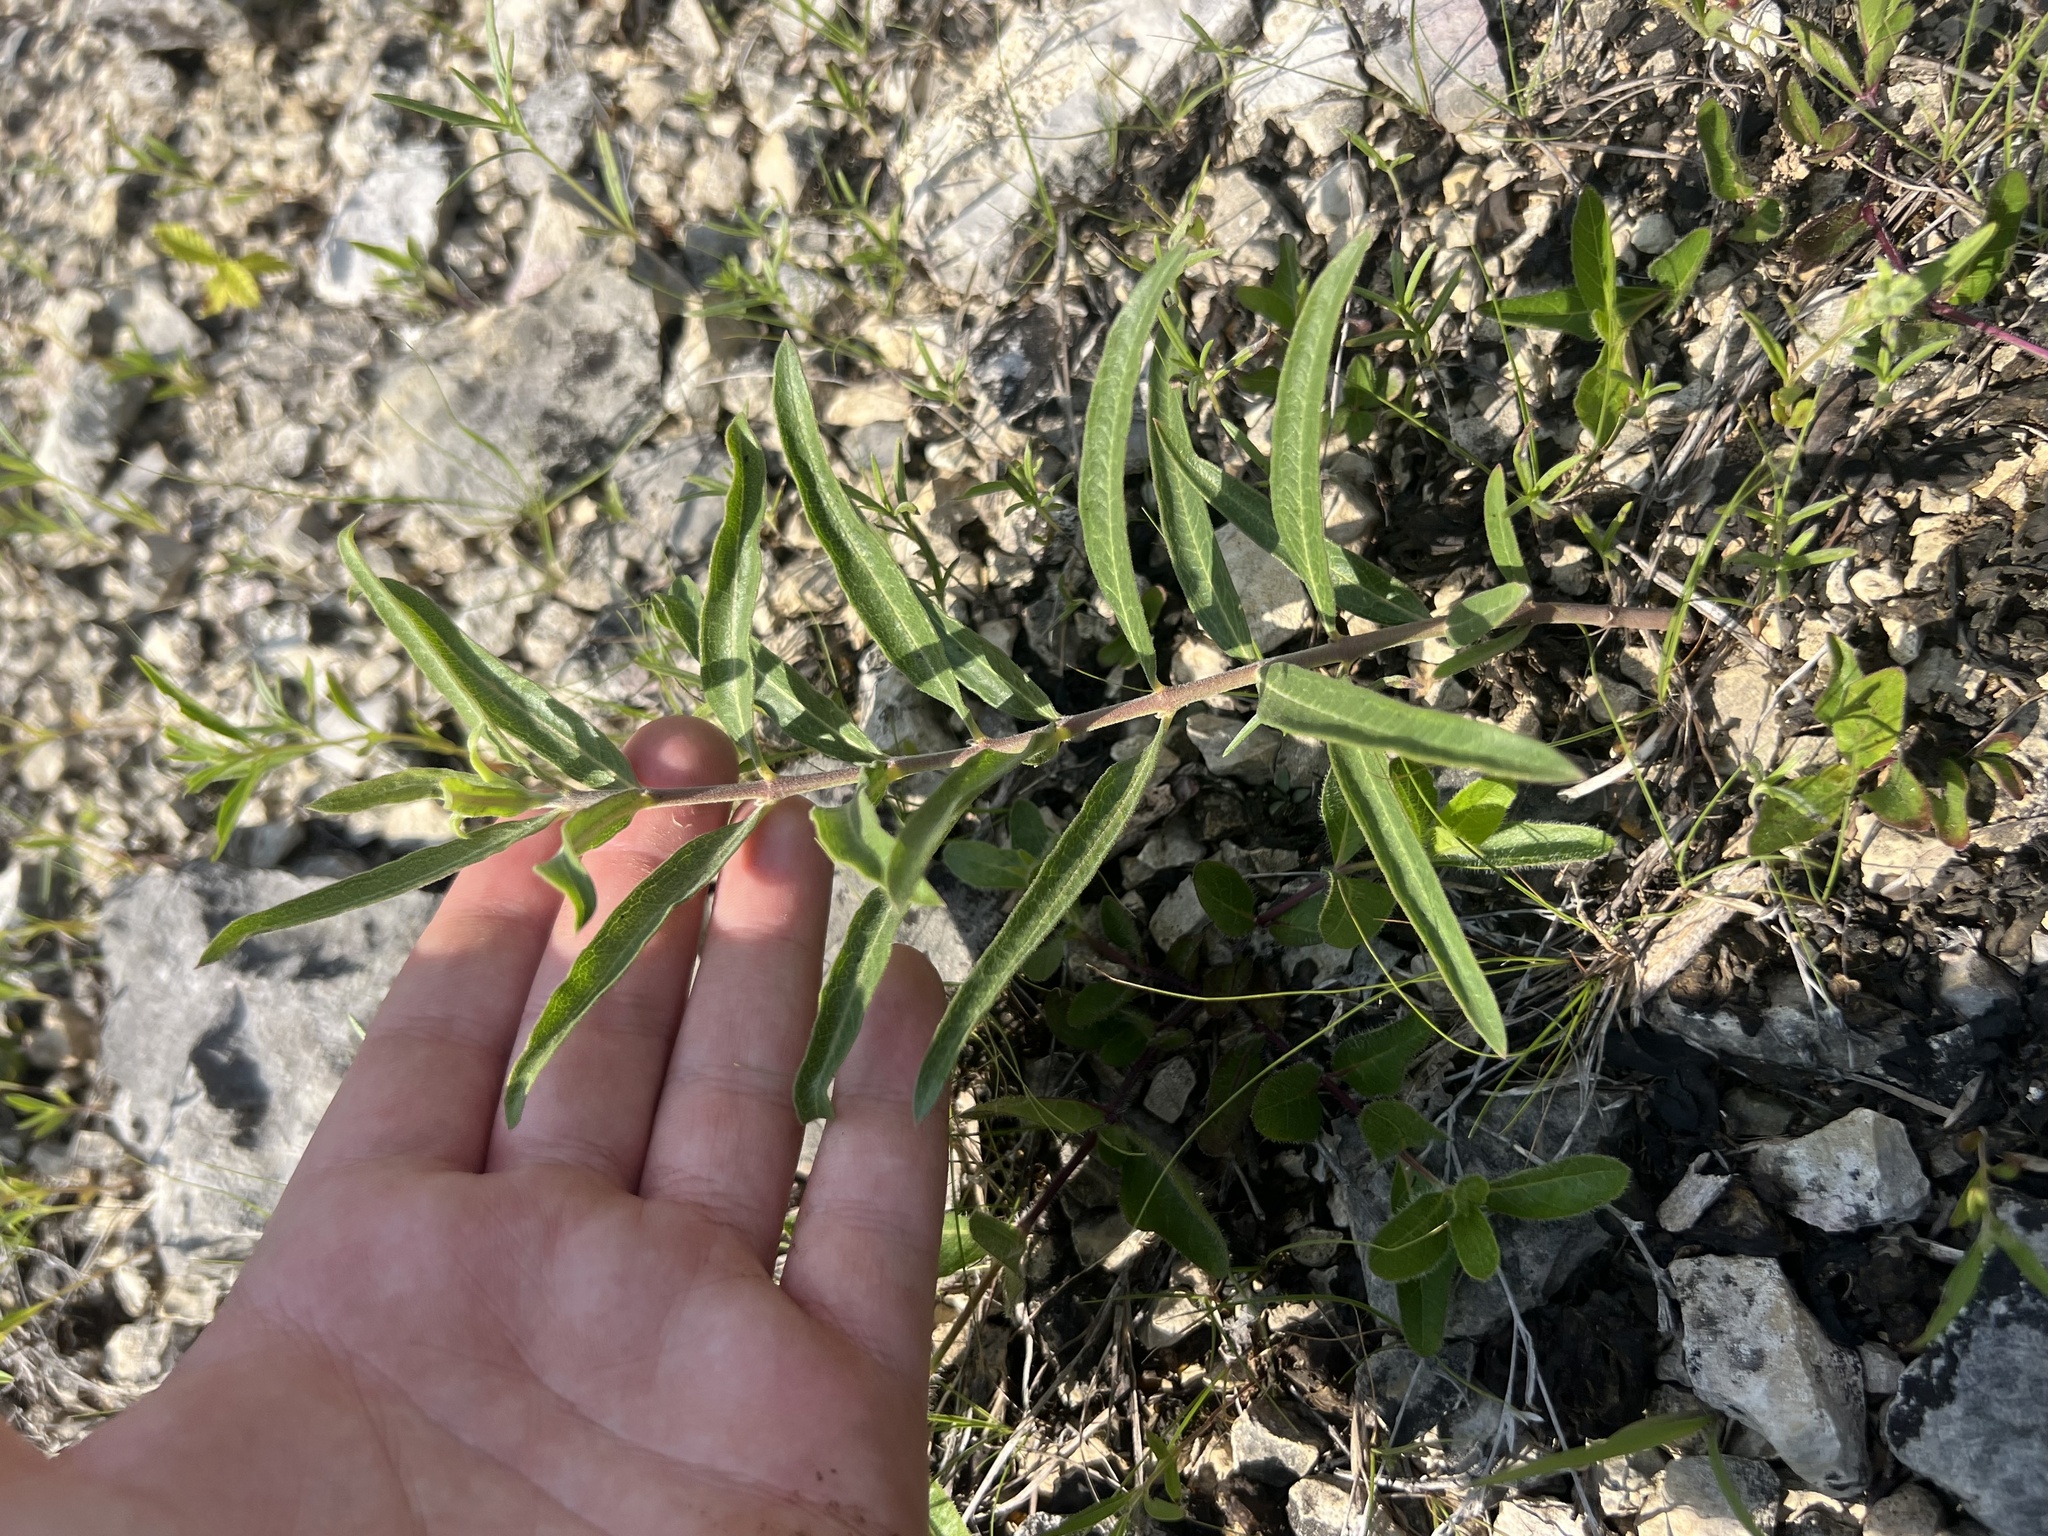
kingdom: Plantae
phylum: Tracheophyta
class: Magnoliopsida
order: Gentianales
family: Apocynaceae
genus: Asclepias
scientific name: Asclepias viridiflora
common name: Green comet milkweed
